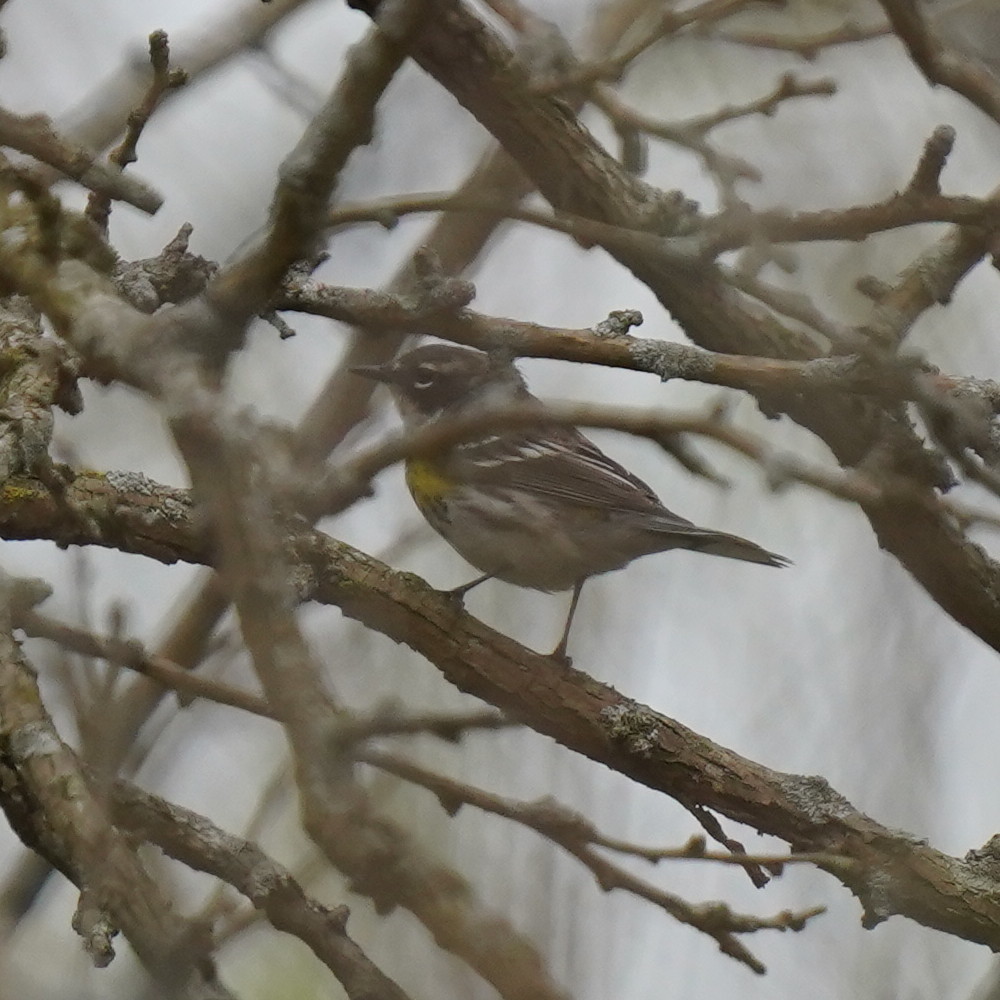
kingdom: Animalia
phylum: Chordata
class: Aves
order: Passeriformes
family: Parulidae
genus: Setophaga
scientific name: Setophaga coronata
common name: Myrtle warbler
